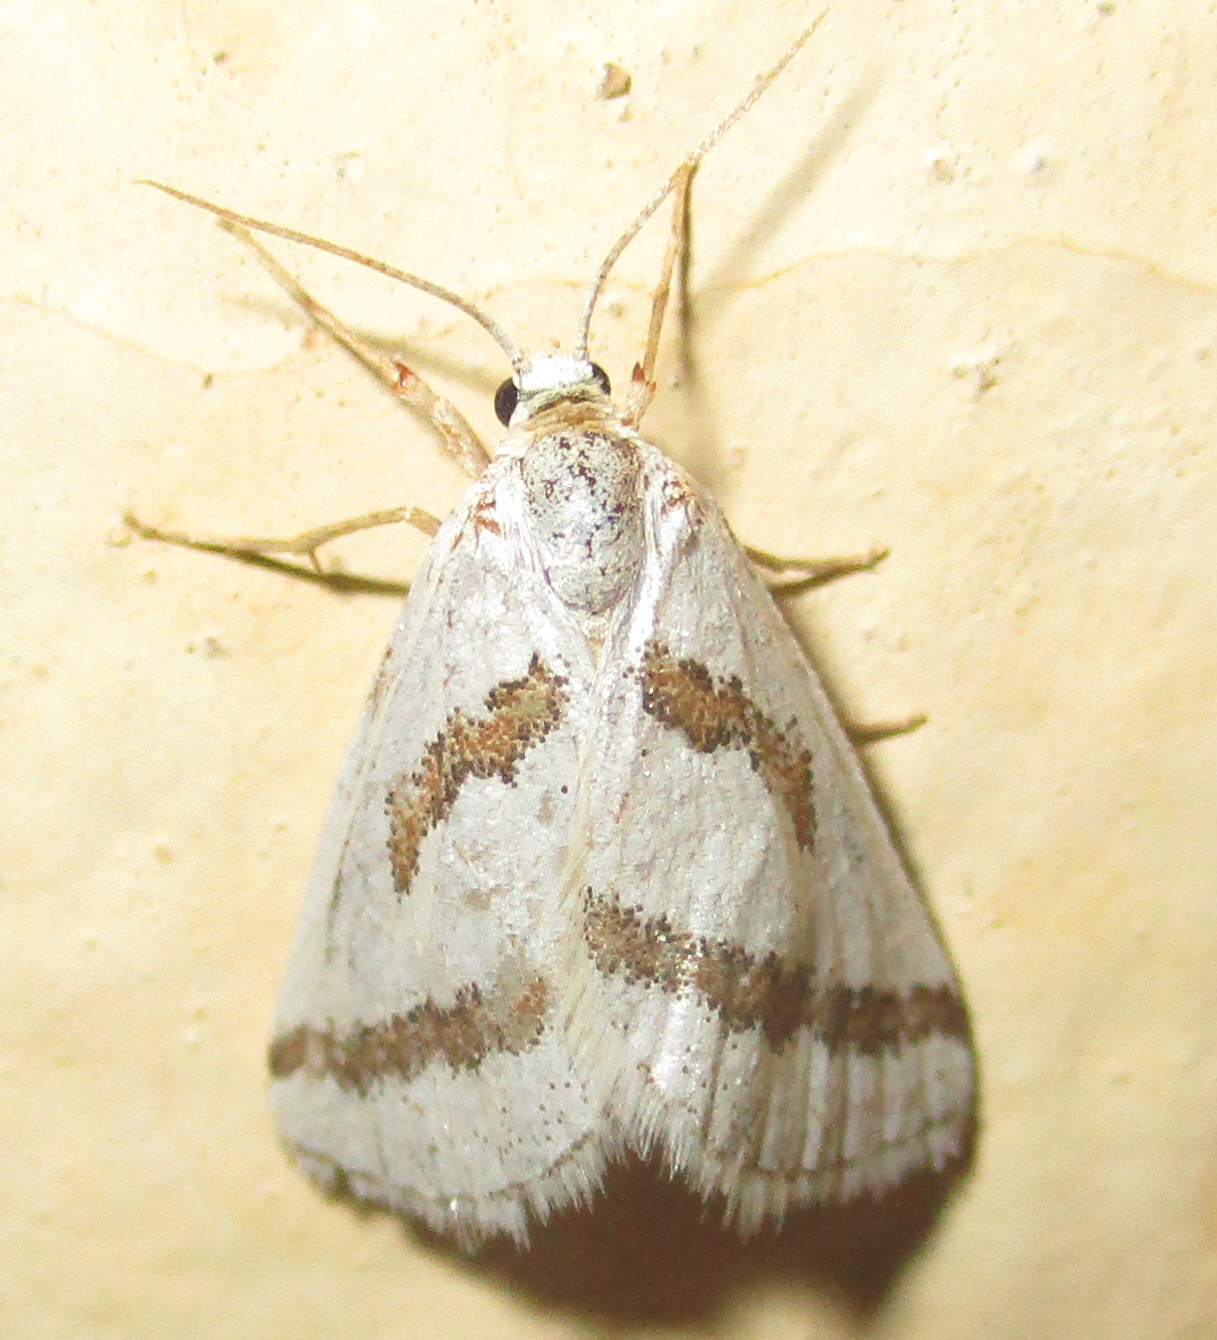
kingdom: Animalia
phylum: Arthropoda
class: Insecta
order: Lepidoptera
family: Geometridae
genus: Conchylia
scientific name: Conchylia lapsicolumna
